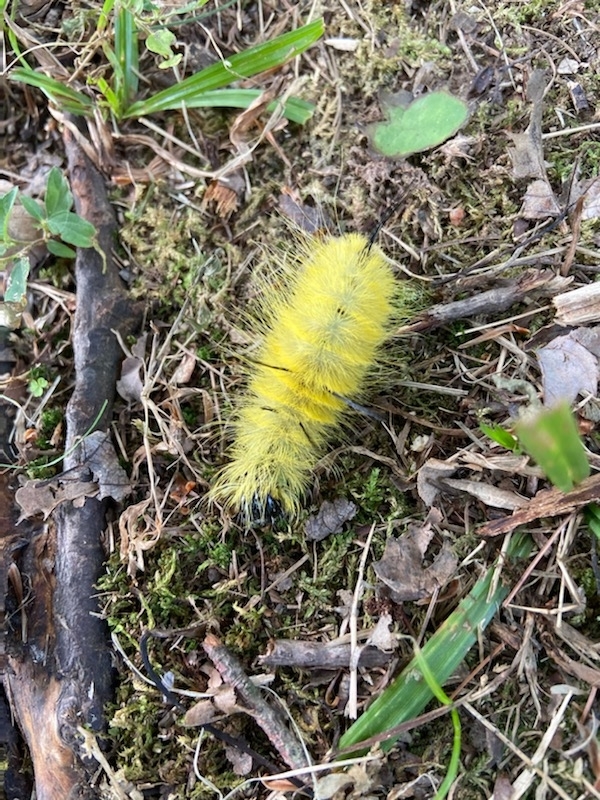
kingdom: Animalia
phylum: Arthropoda
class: Insecta
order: Lepidoptera
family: Noctuidae
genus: Acronicta
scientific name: Acronicta americana
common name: American dagger
